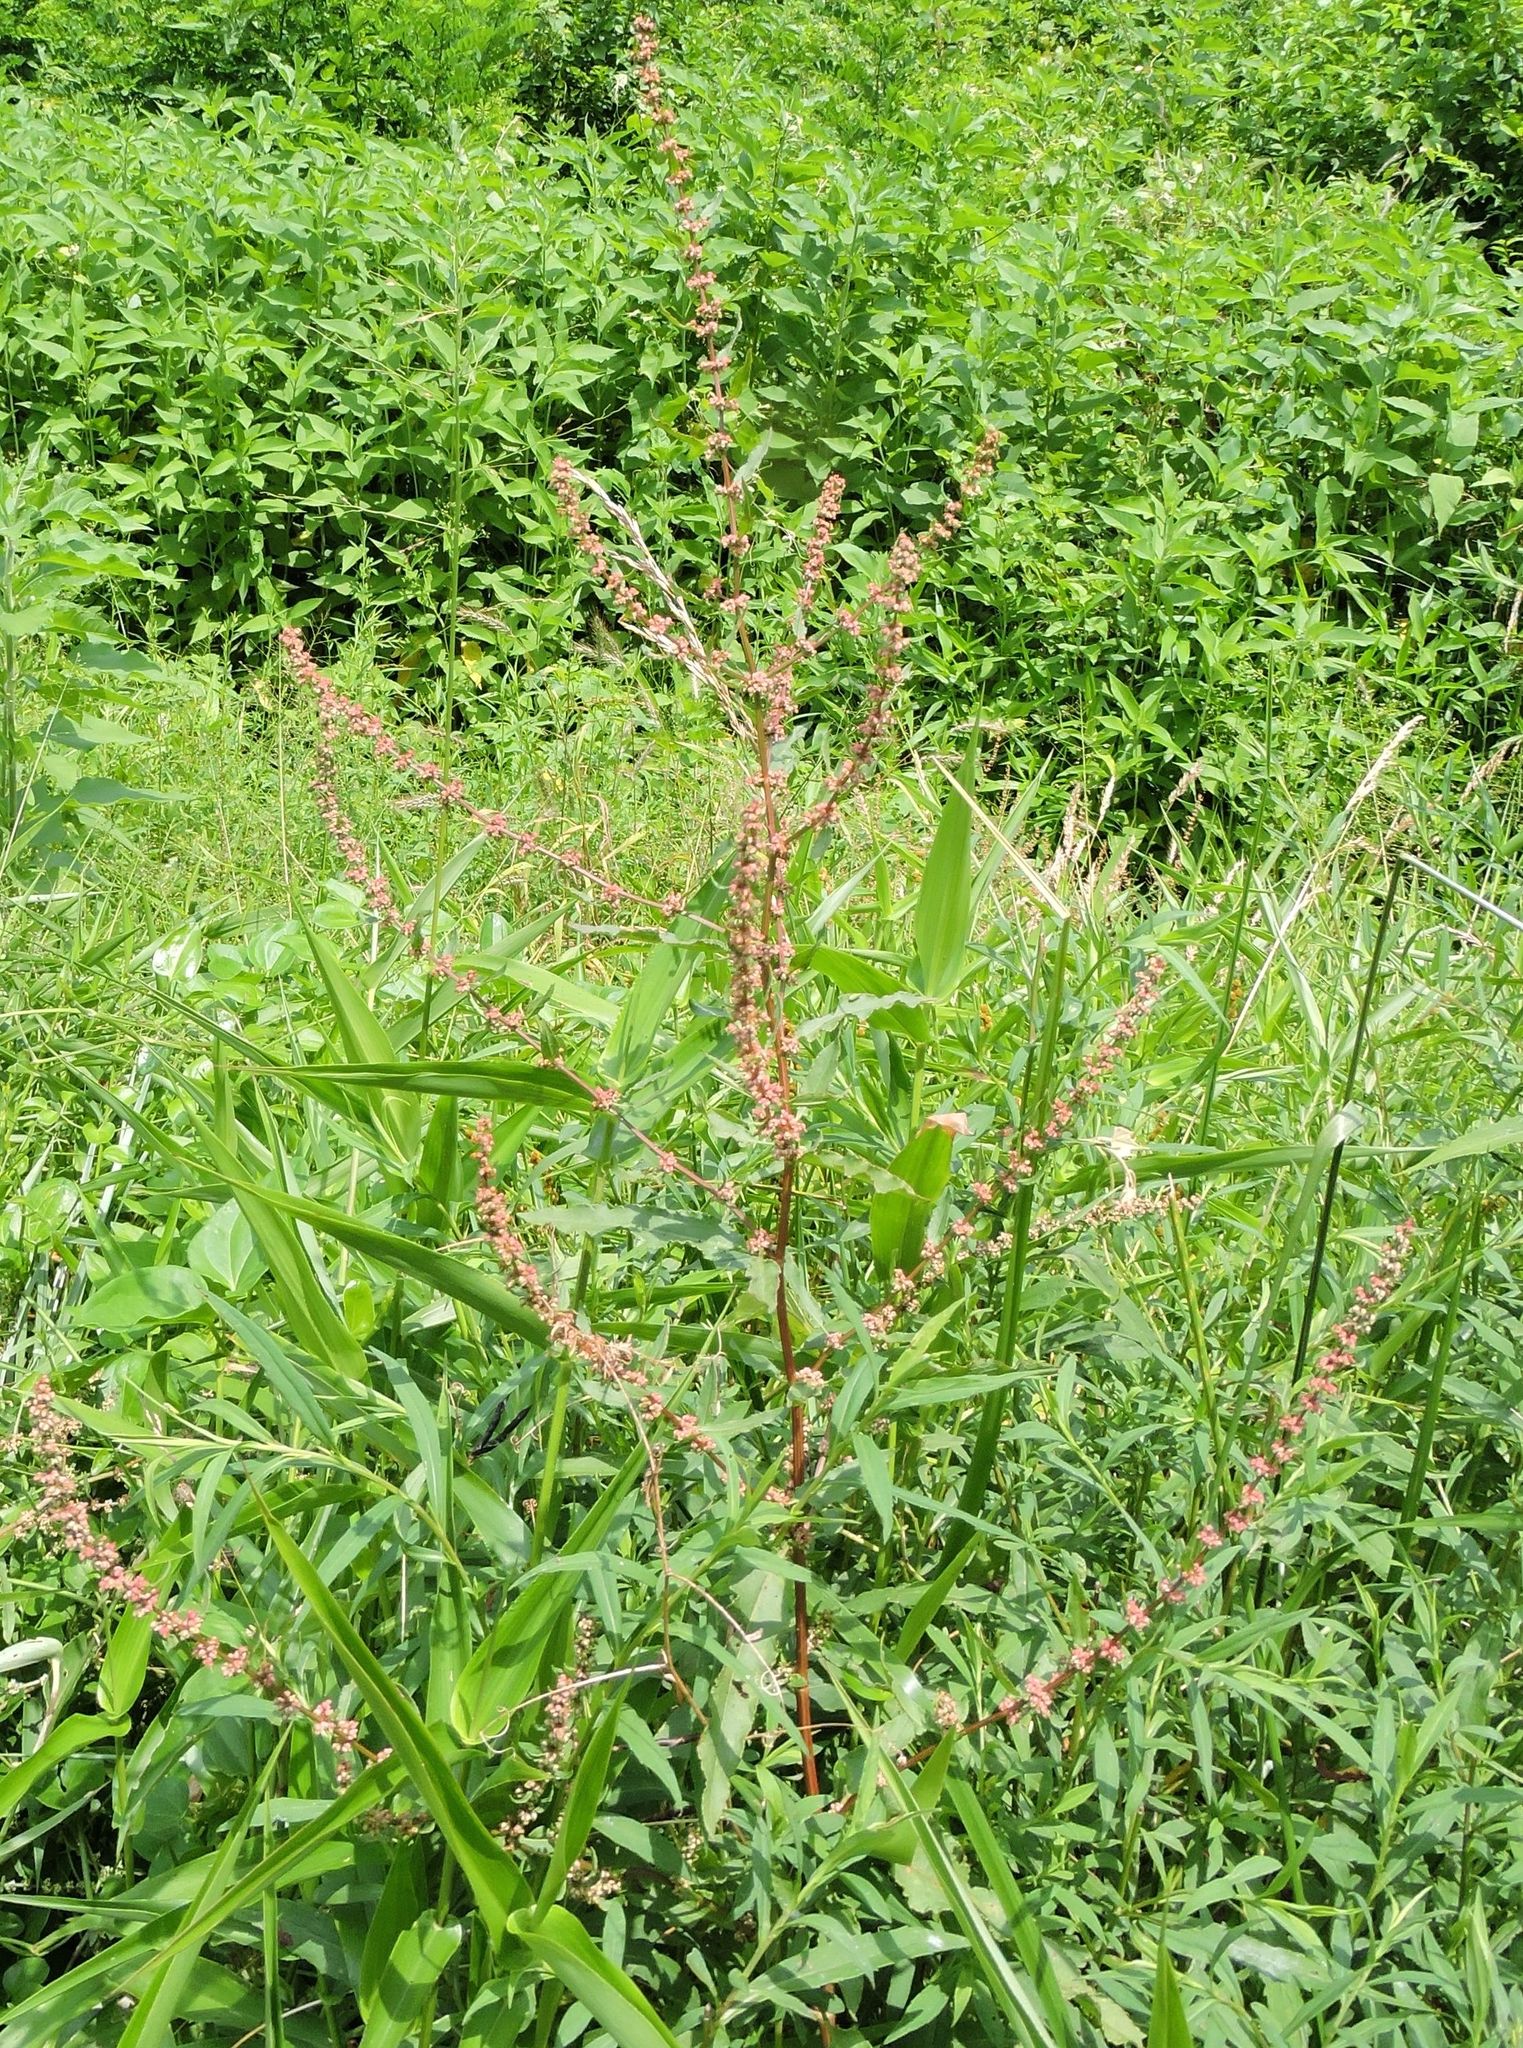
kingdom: Plantae
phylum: Tracheophyta
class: Magnoliopsida
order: Caryophyllales
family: Polygonaceae
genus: Rumex
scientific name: Rumex conglomeratus
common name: Clustered dock
